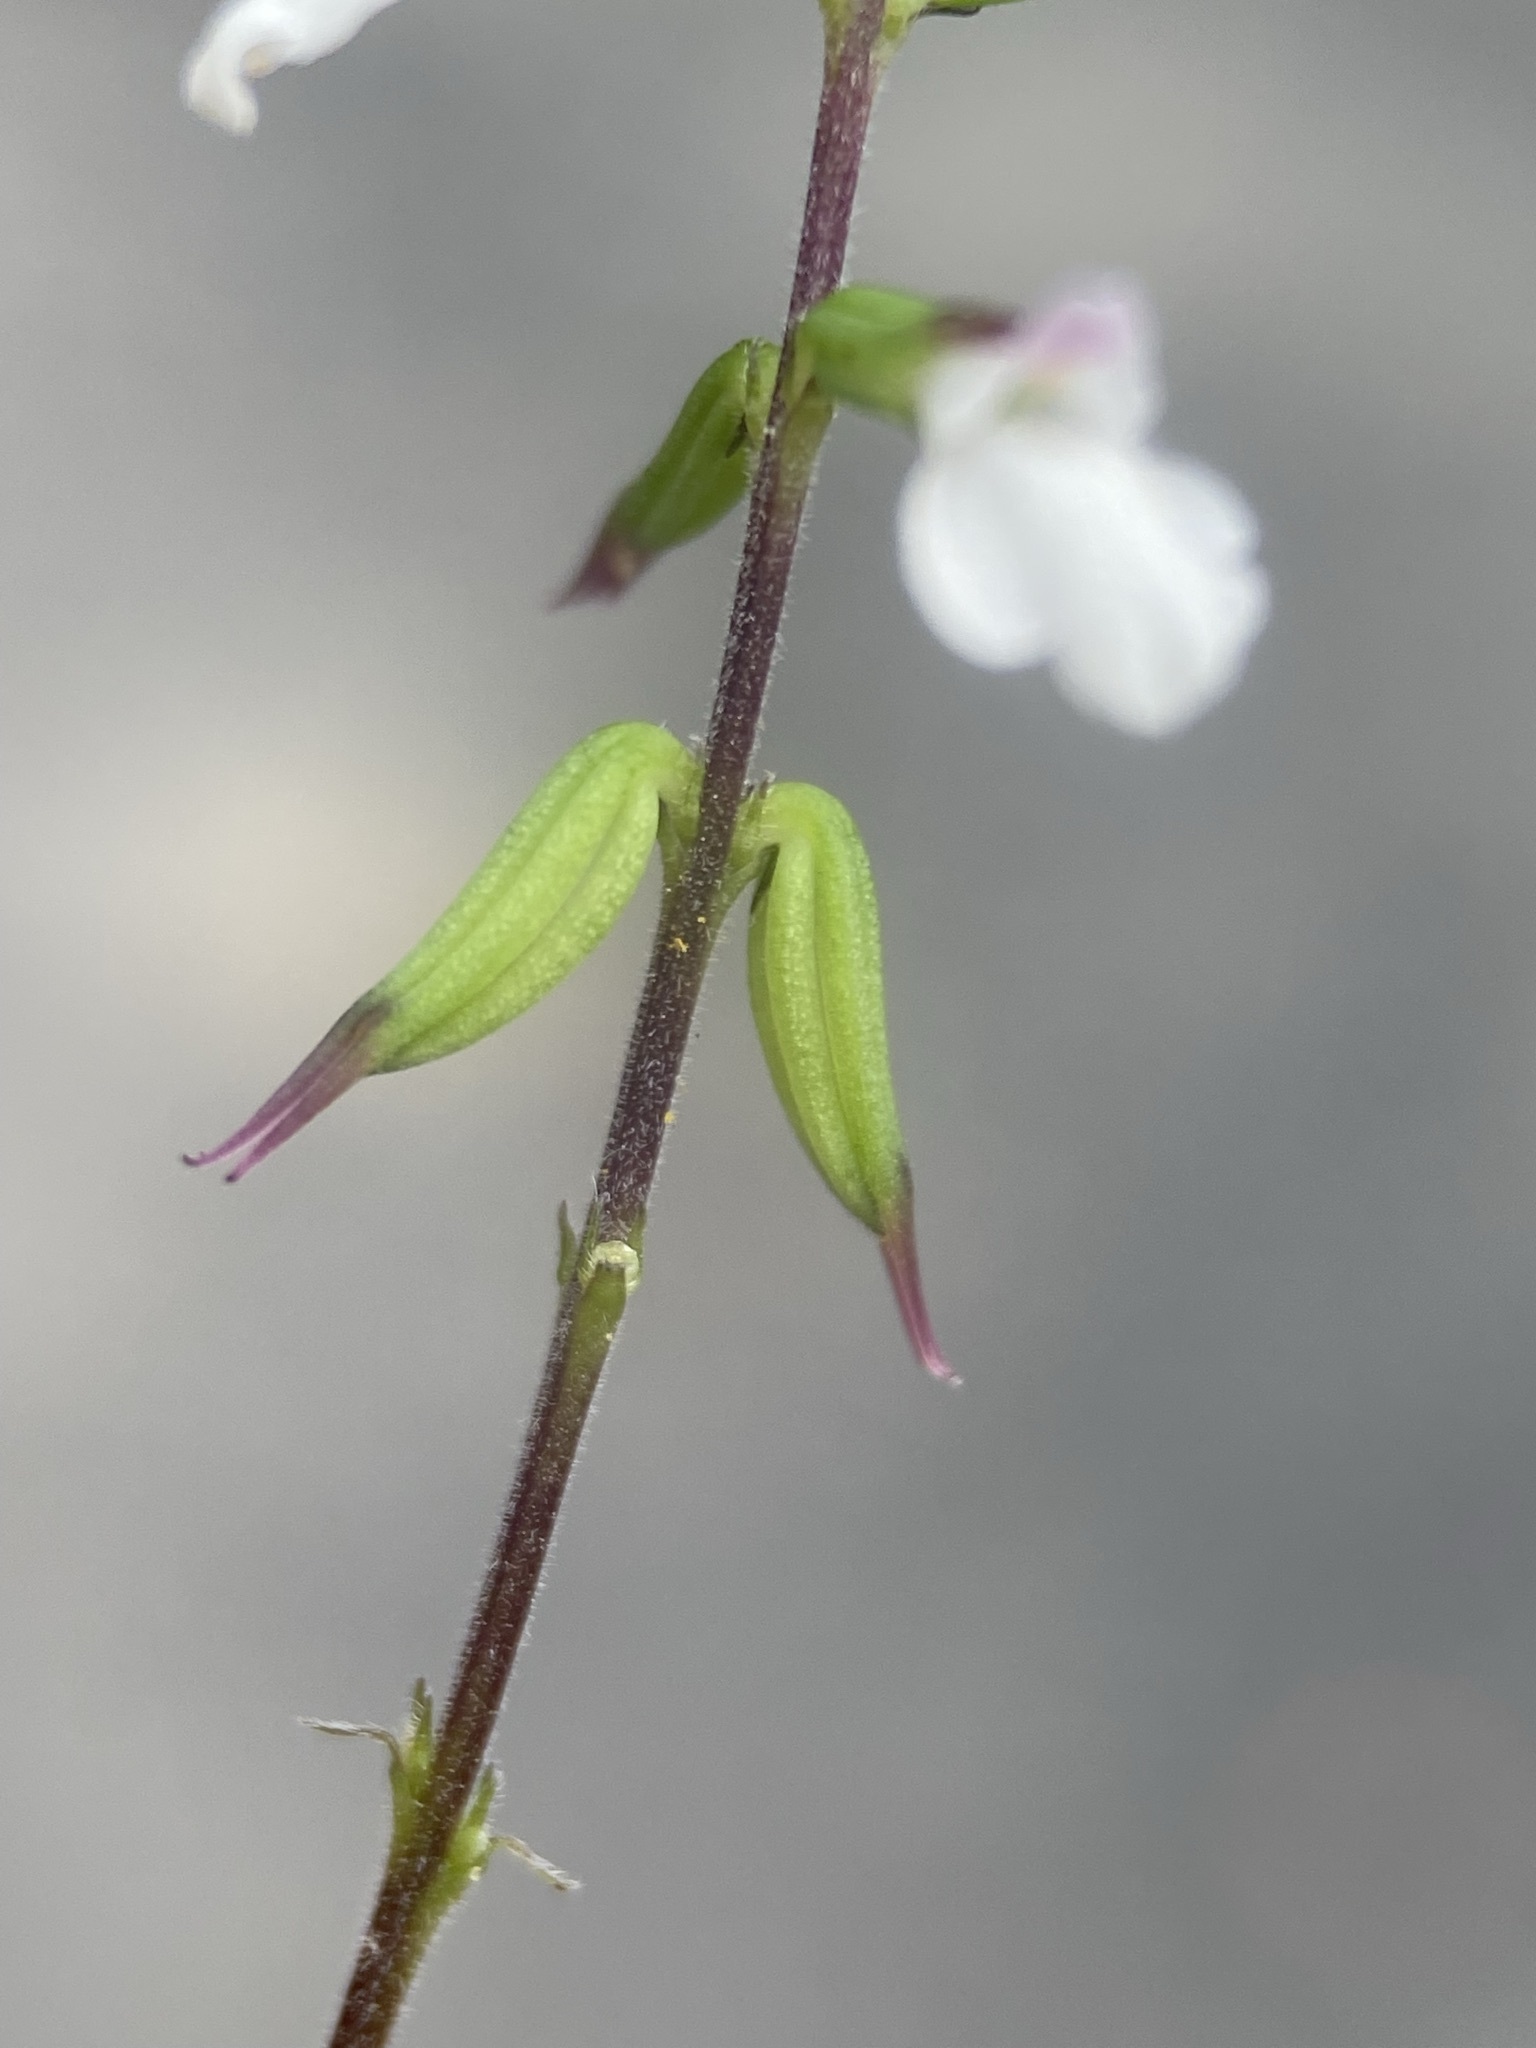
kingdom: Plantae
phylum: Tracheophyta
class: Magnoliopsida
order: Lamiales
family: Phrymaceae
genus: Phryma
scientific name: Phryma leptostachya
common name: American lopseed
